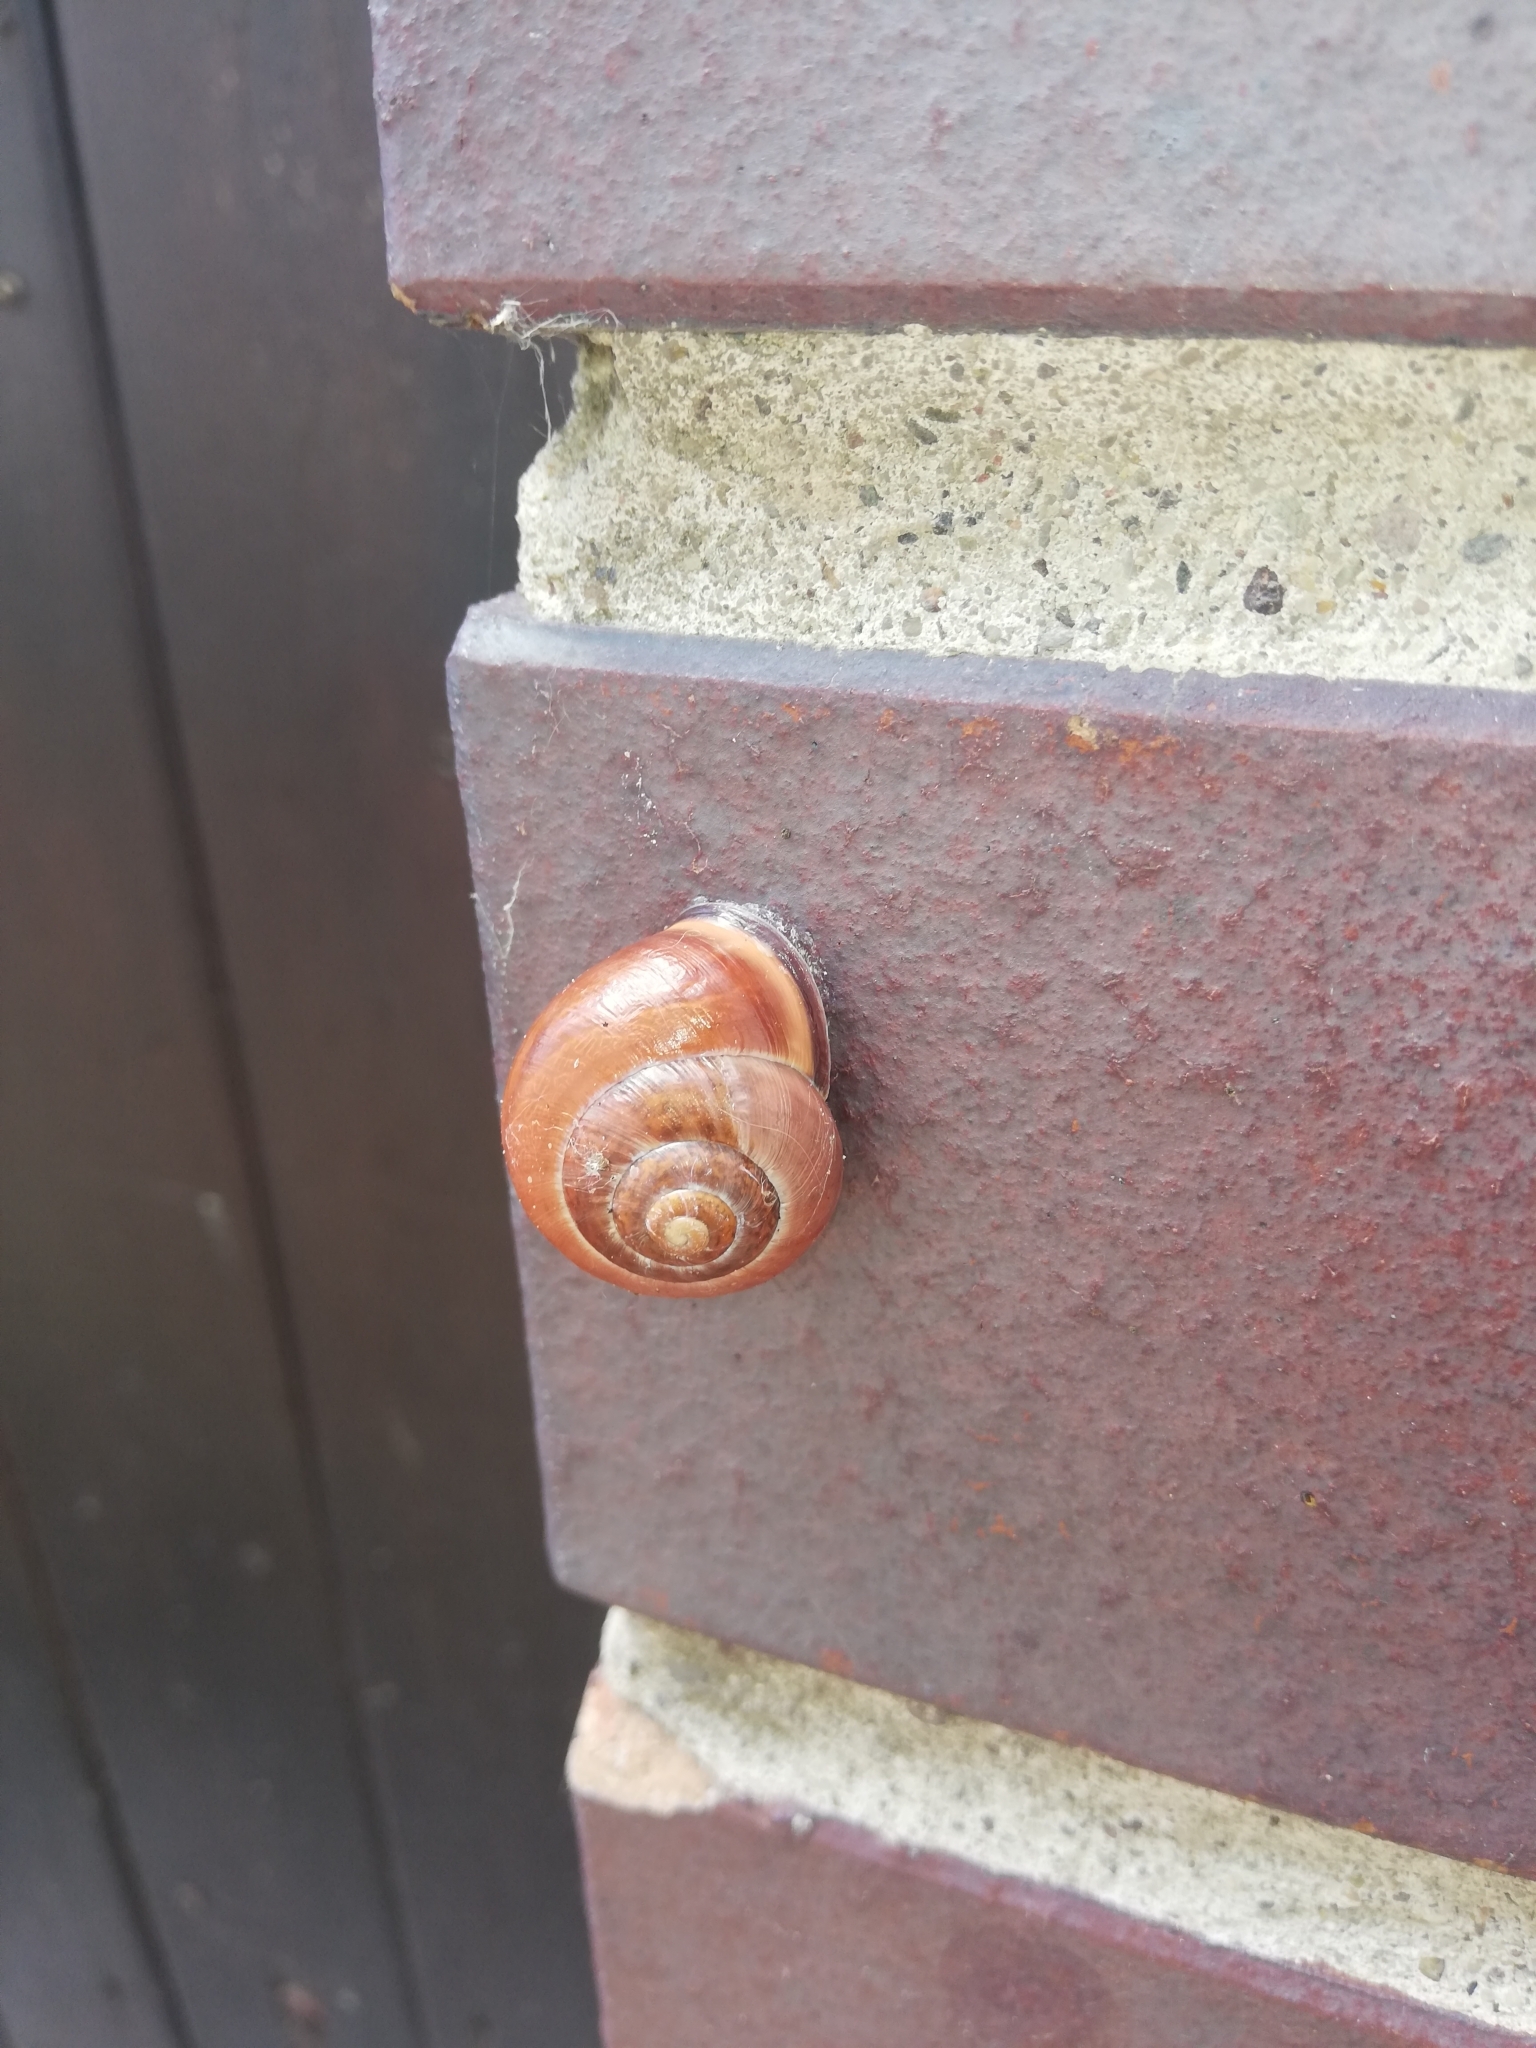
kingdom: Animalia
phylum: Mollusca
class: Gastropoda
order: Stylommatophora
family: Helicidae
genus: Cepaea
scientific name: Cepaea nemoralis
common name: Grovesnail
